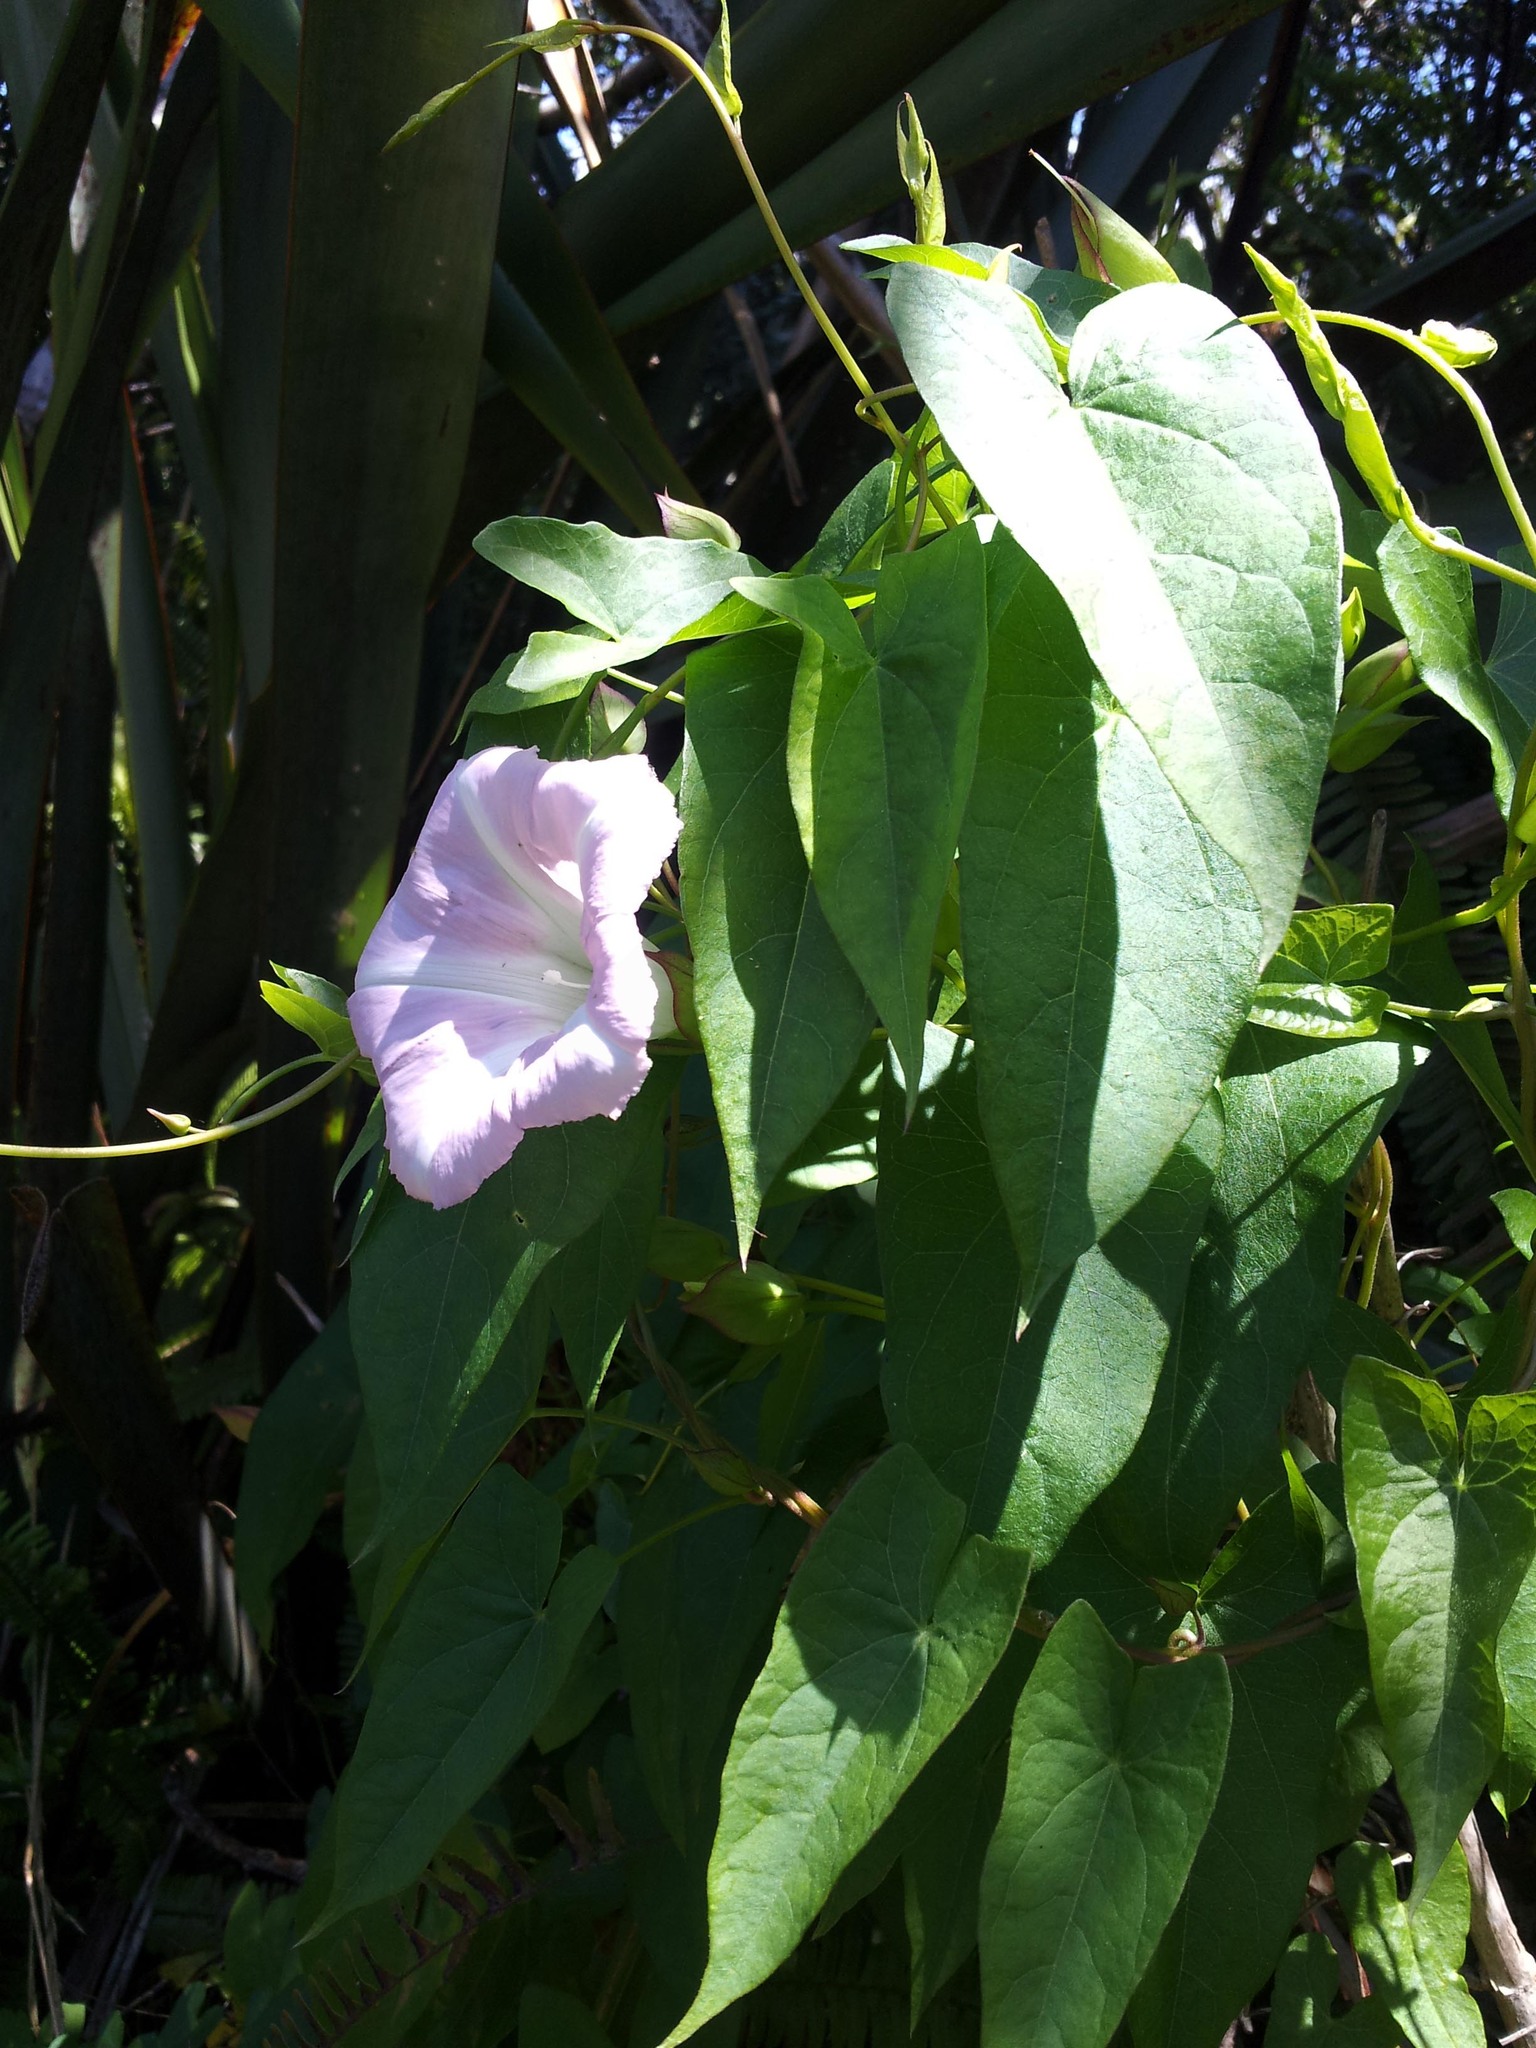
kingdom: Plantae
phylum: Tracheophyta
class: Magnoliopsida
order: Solanales
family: Convolvulaceae
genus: Calystegia
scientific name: Calystegia sepium
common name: Hedge bindweed
